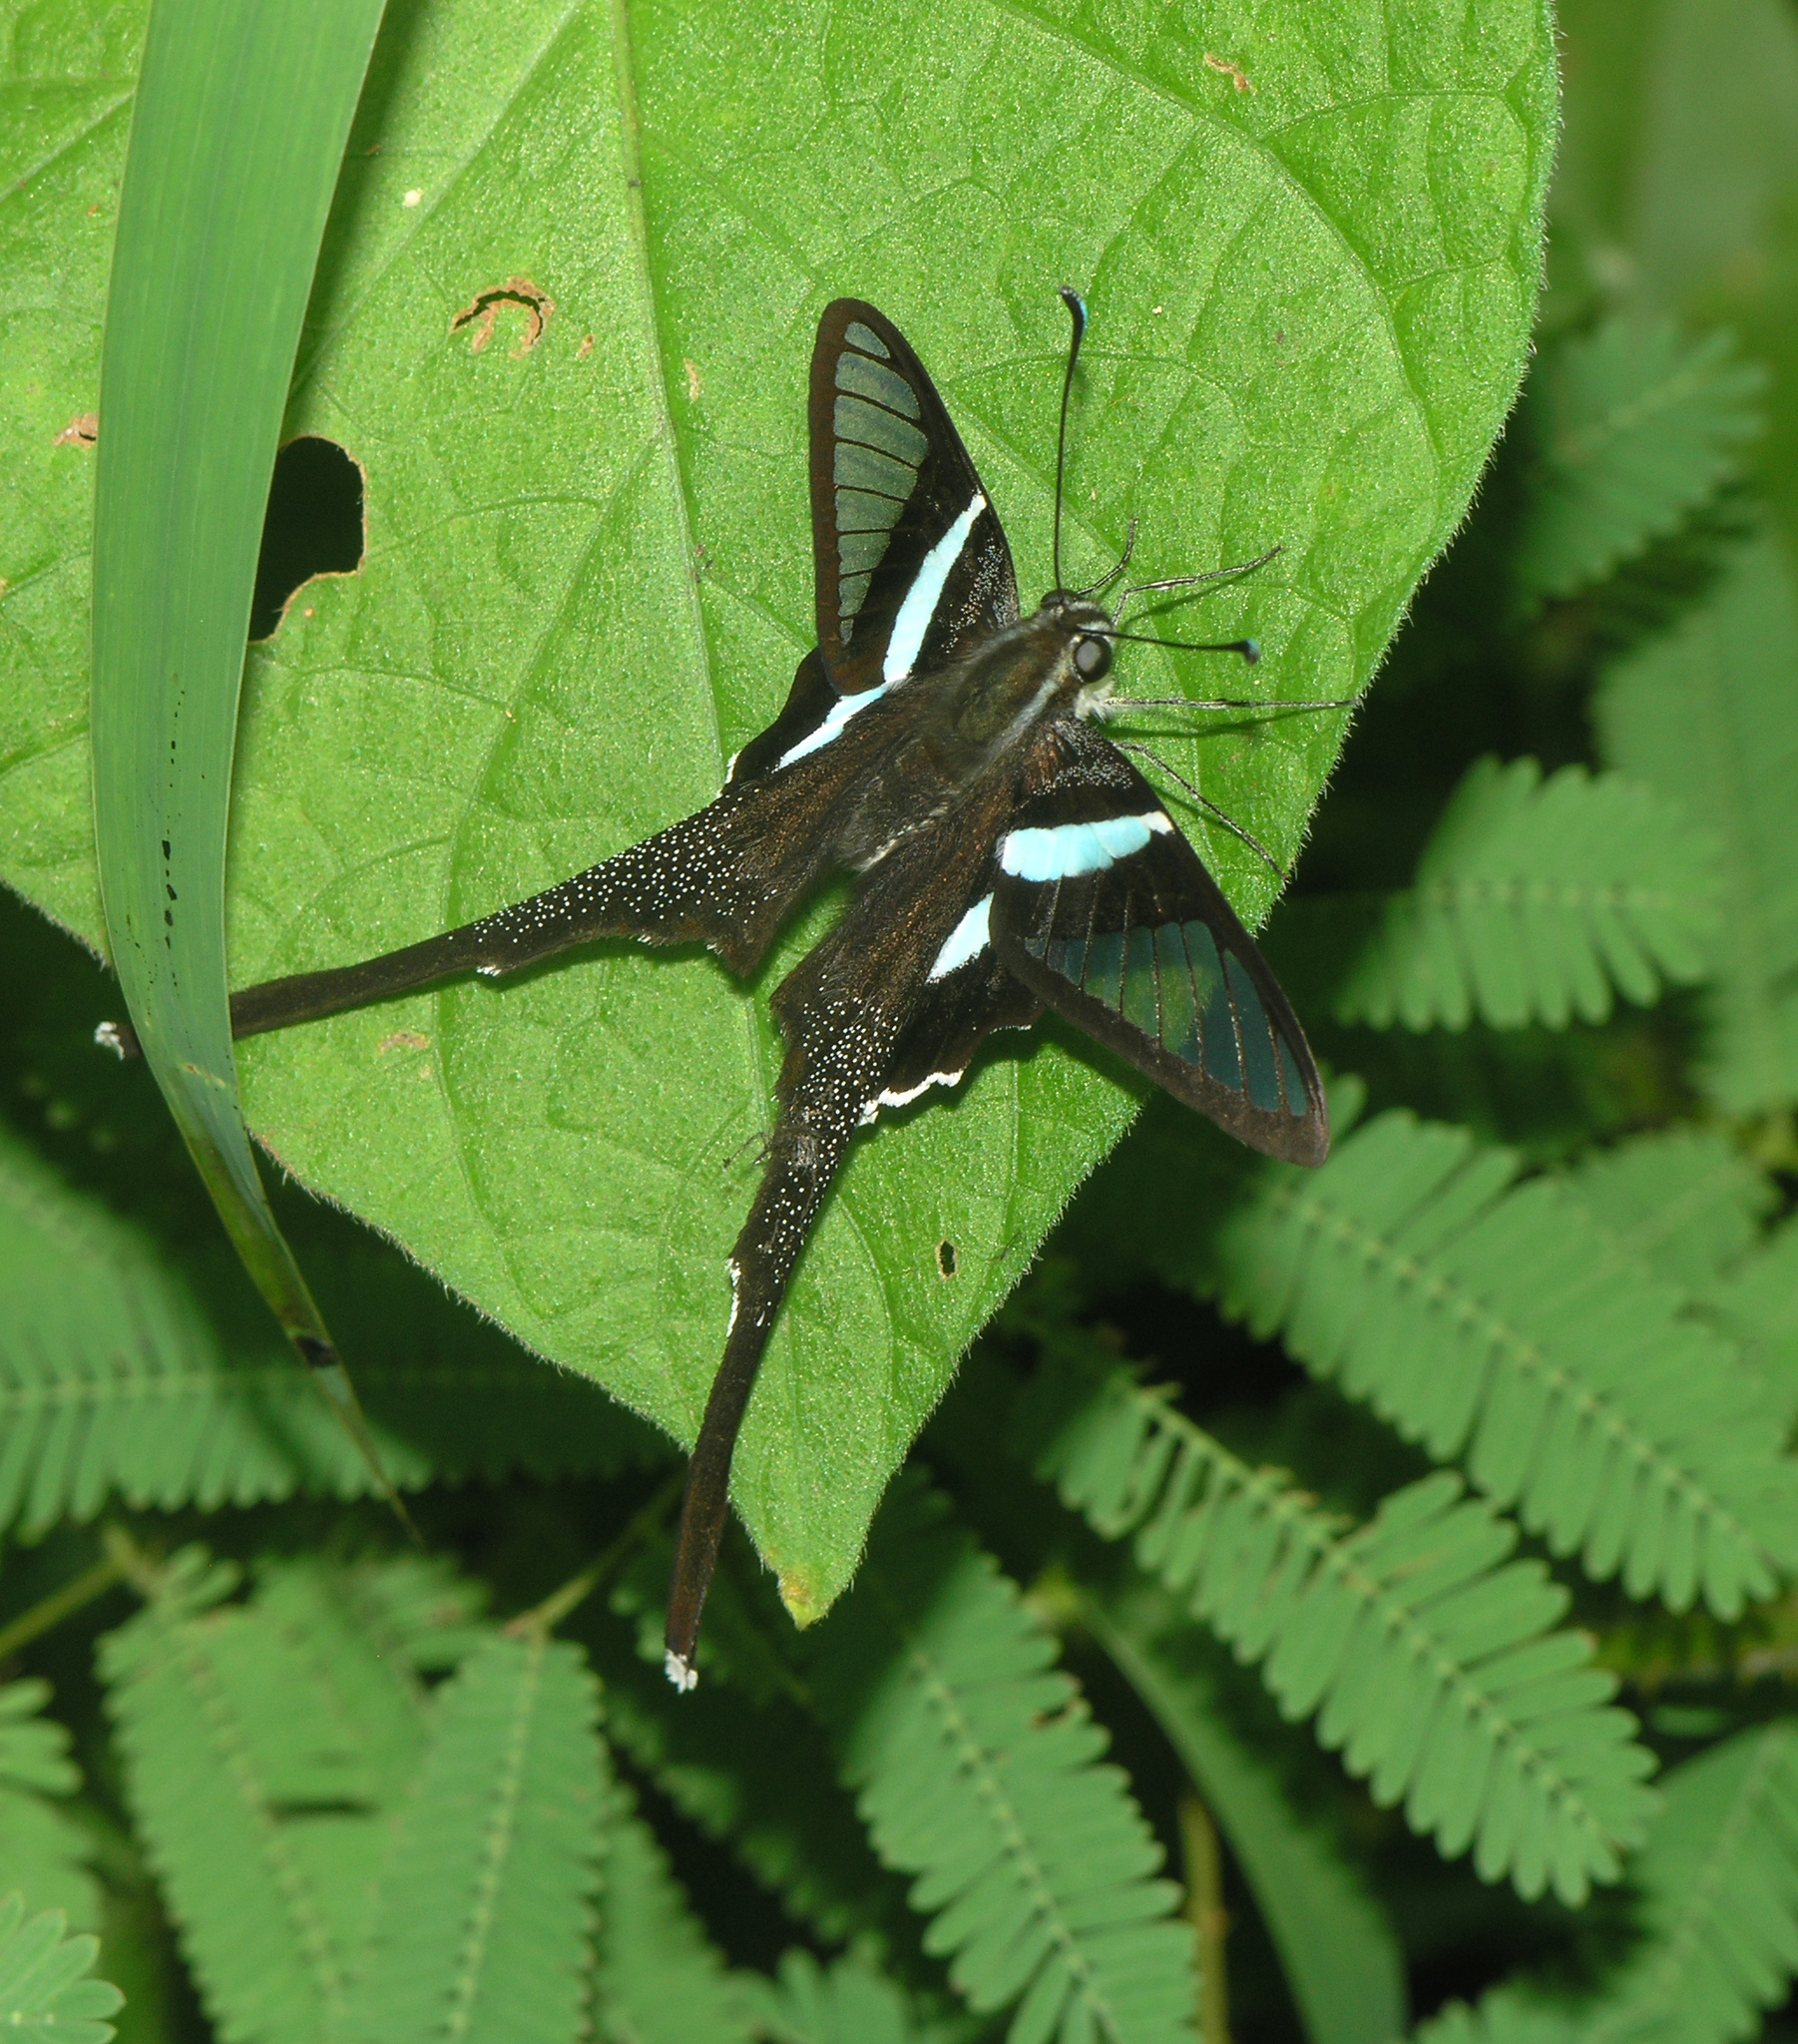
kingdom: Animalia
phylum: Arthropoda
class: Insecta
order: Lepidoptera
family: Papilionidae
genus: Lamproptera
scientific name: Lamproptera meges
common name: Green dragontail
